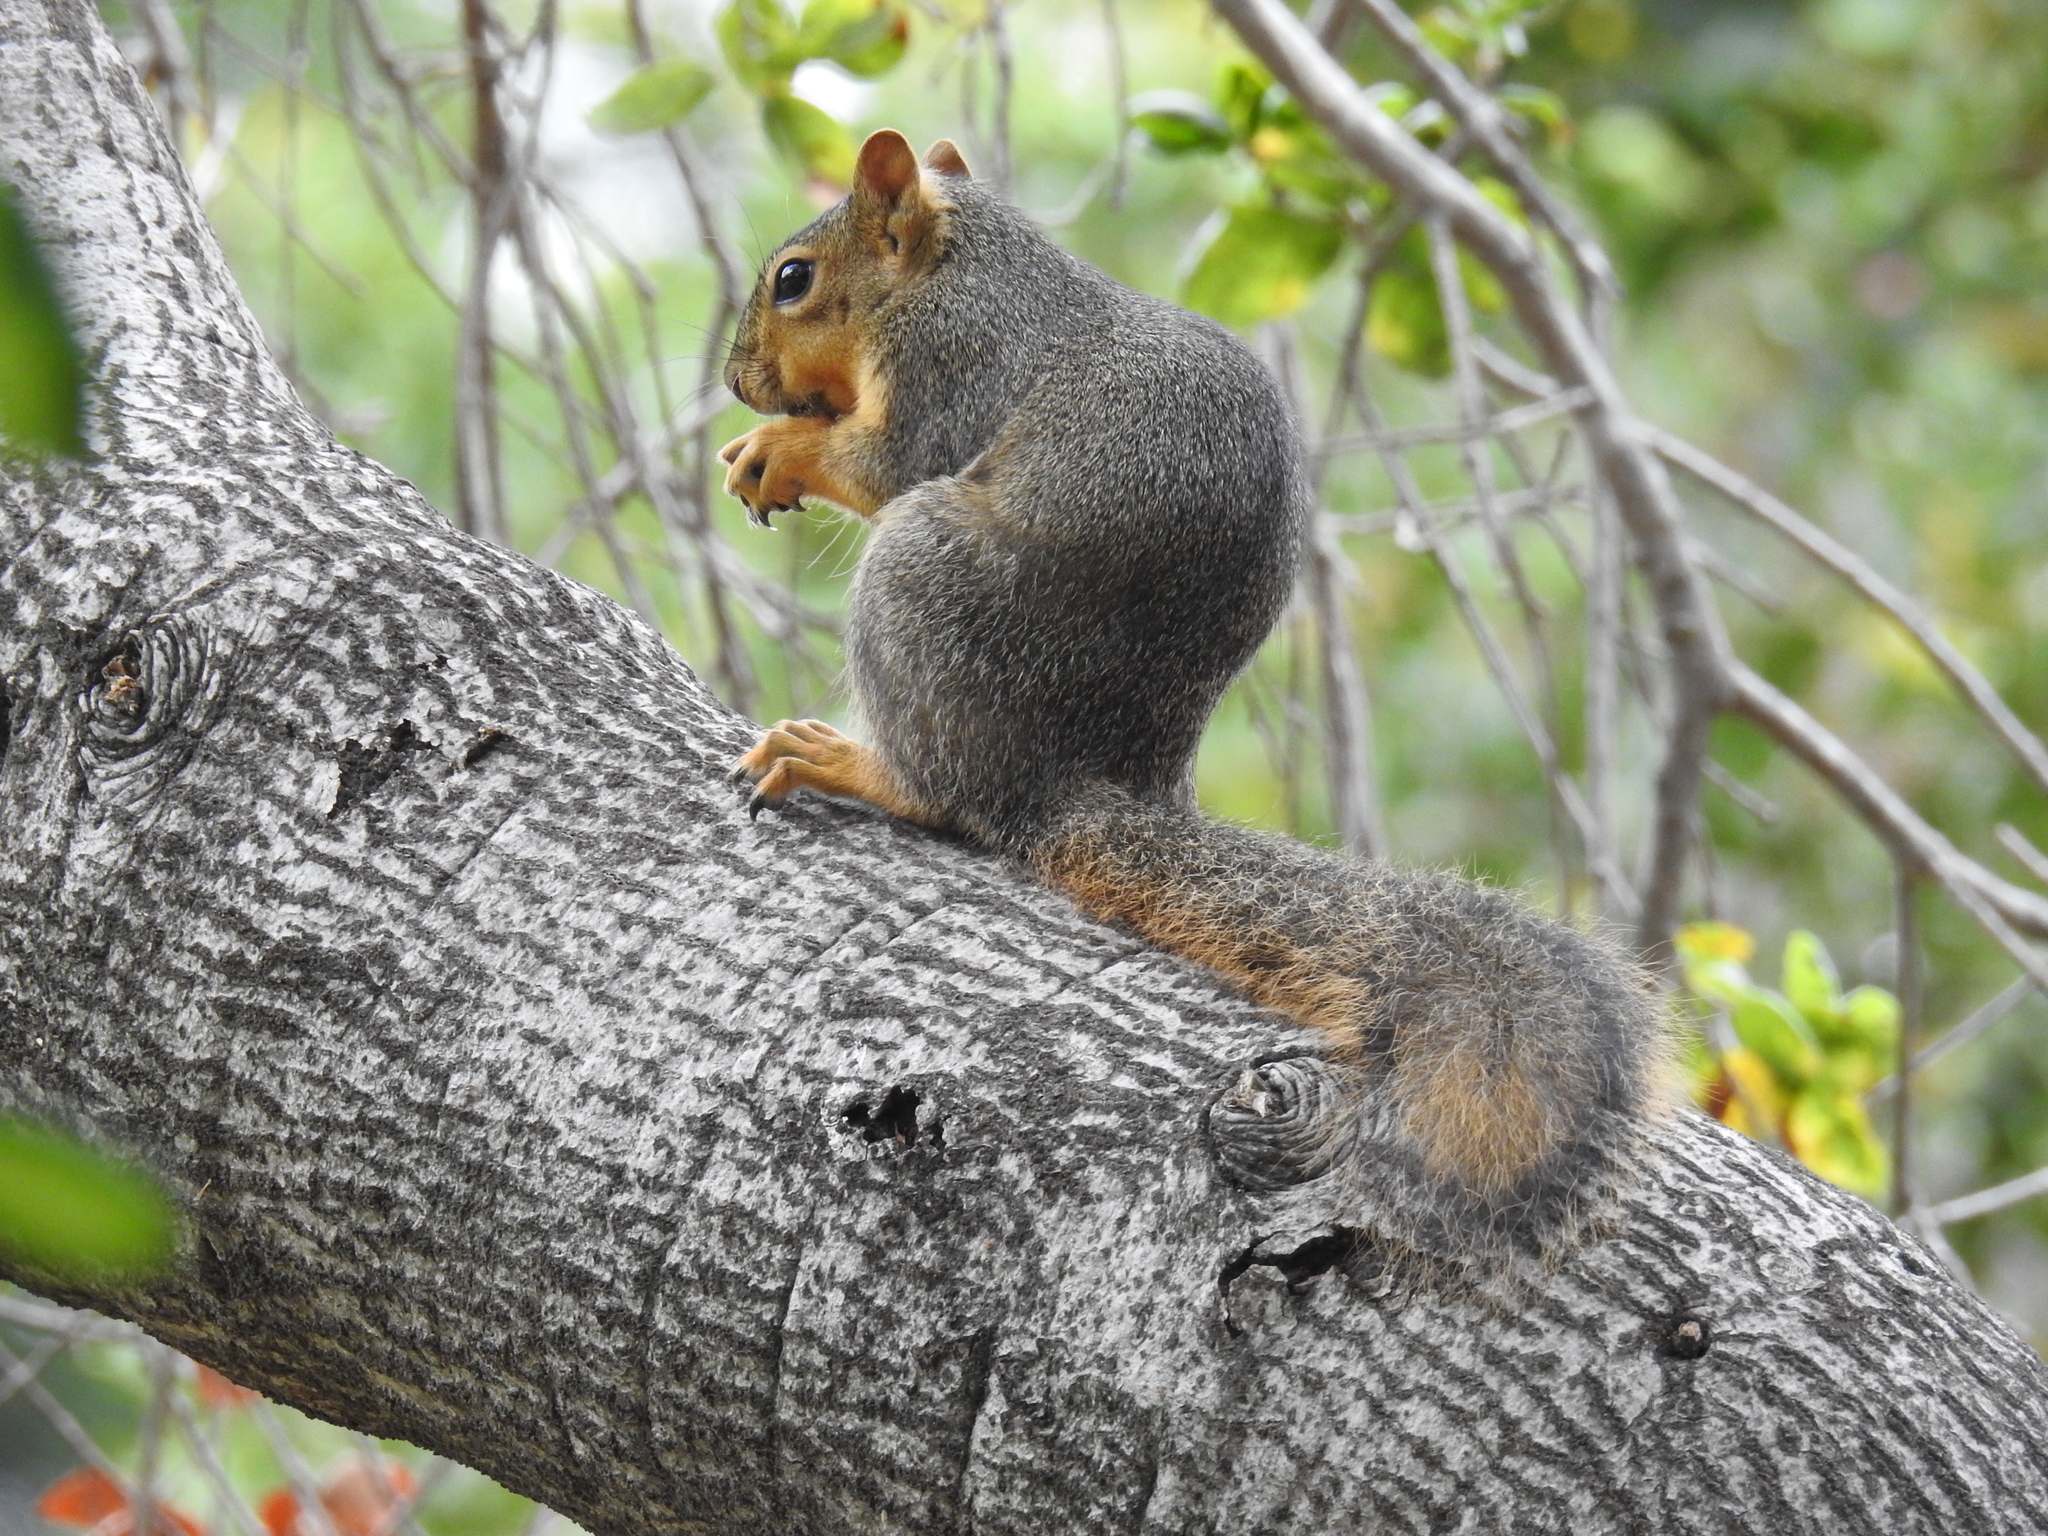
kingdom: Animalia
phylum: Chordata
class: Mammalia
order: Rodentia
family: Sciuridae
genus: Sciurus
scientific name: Sciurus niger
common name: Fox squirrel
